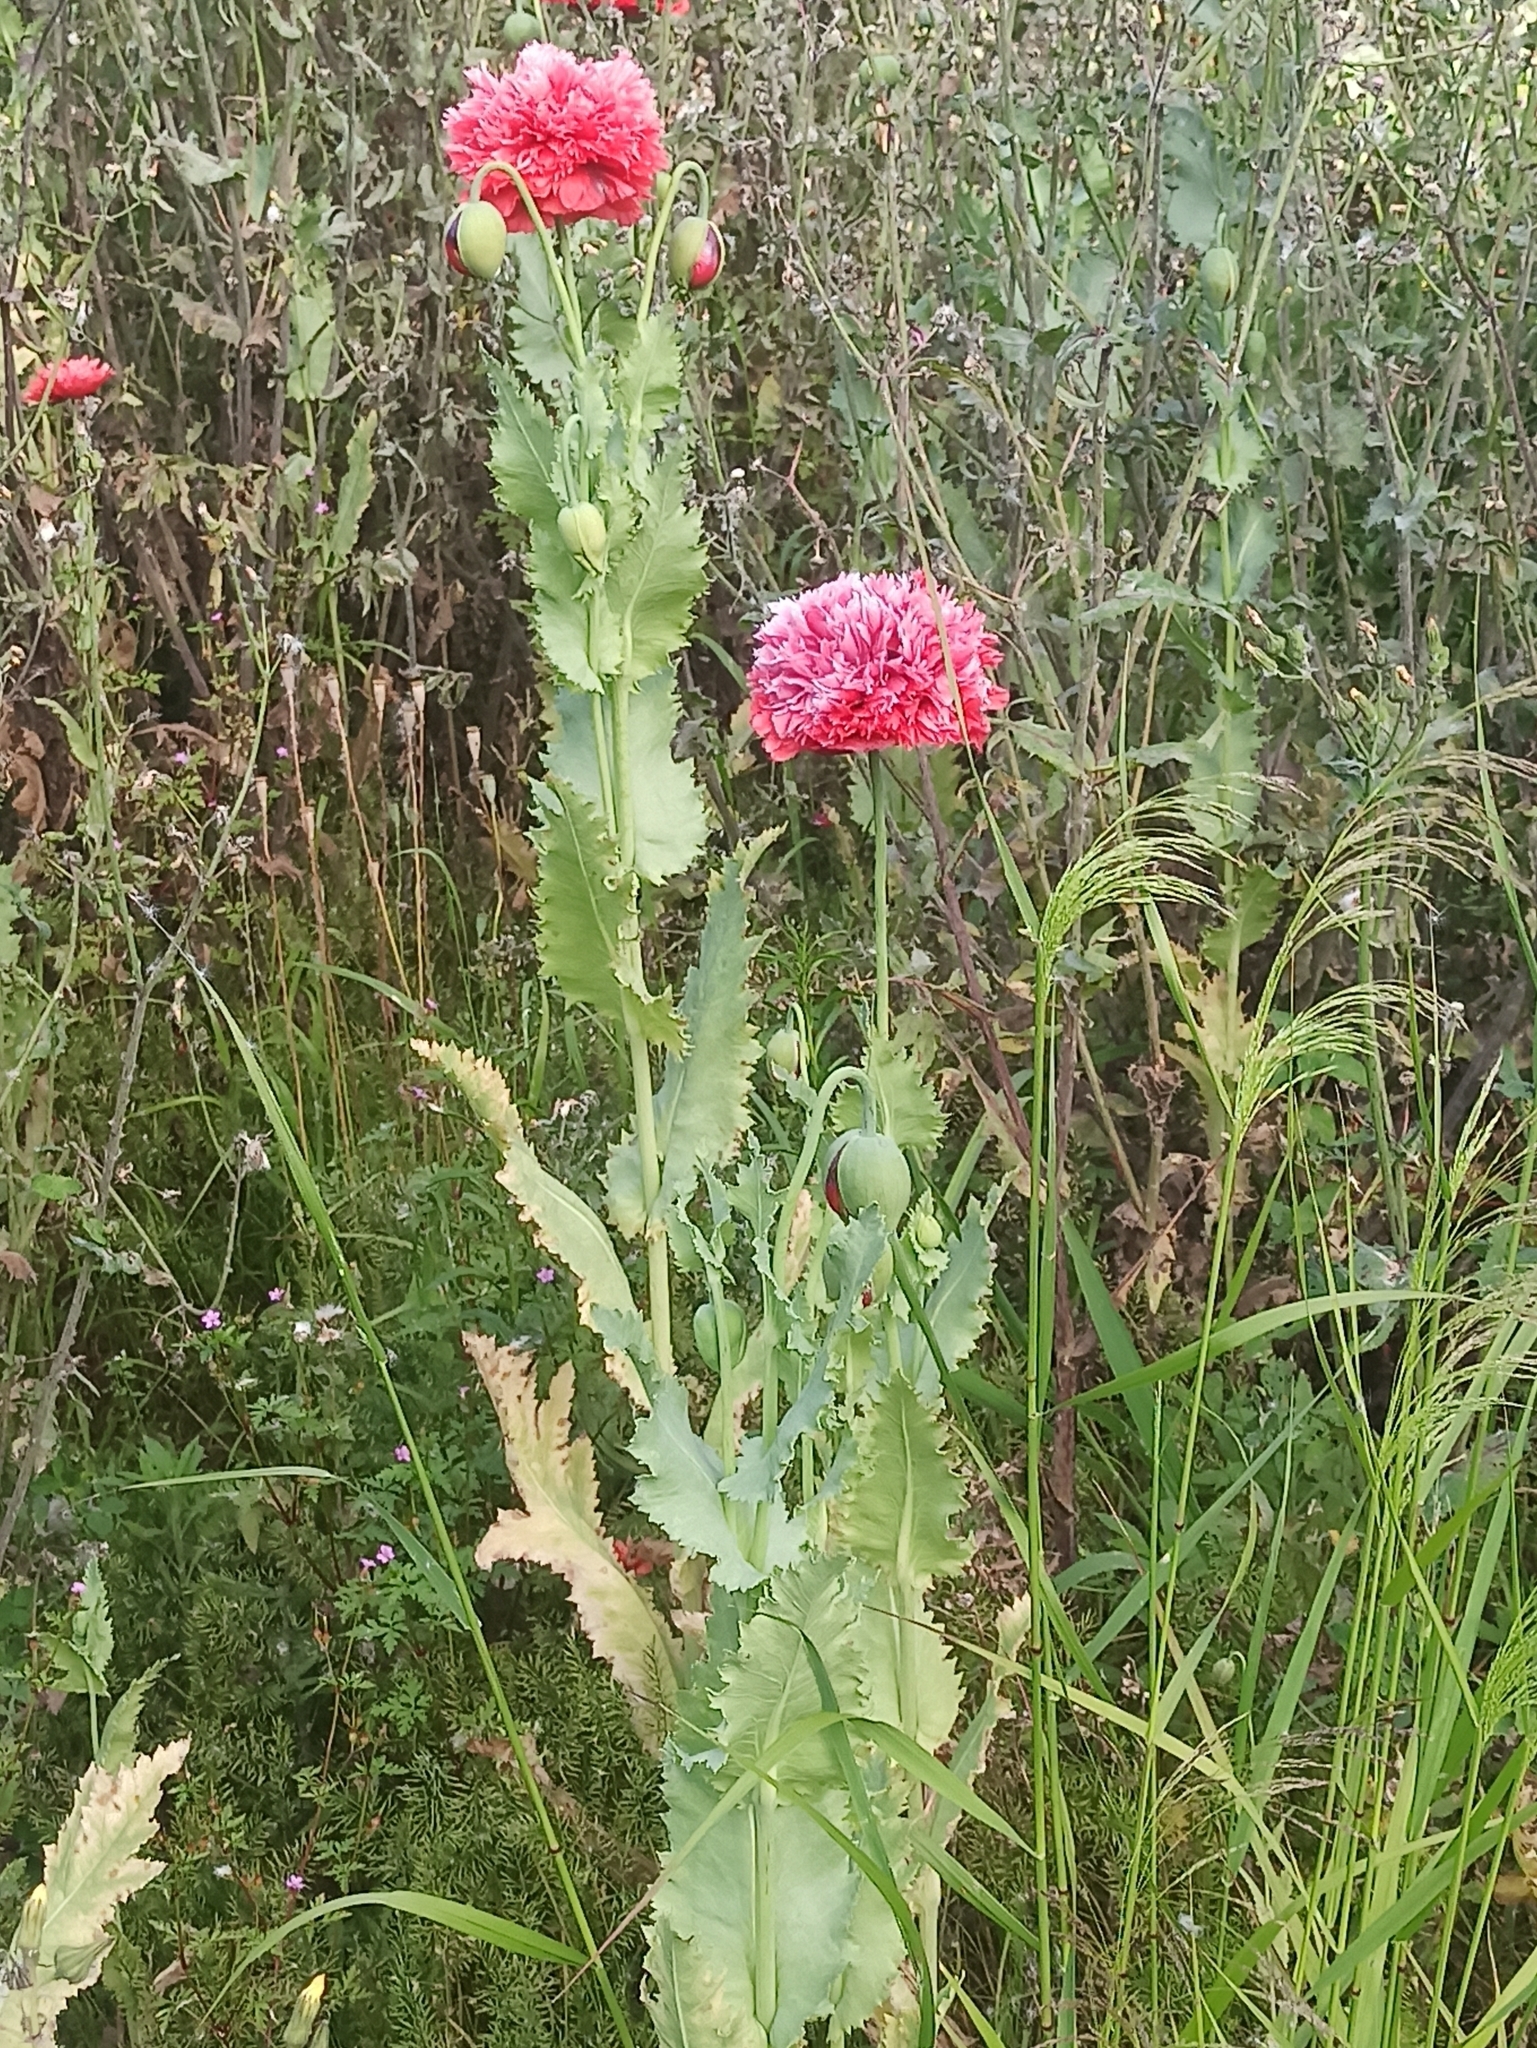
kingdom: Plantae
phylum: Tracheophyta
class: Magnoliopsida
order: Ranunculales
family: Papaveraceae
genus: Papaver
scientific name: Papaver somniferum
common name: Opium poppy
